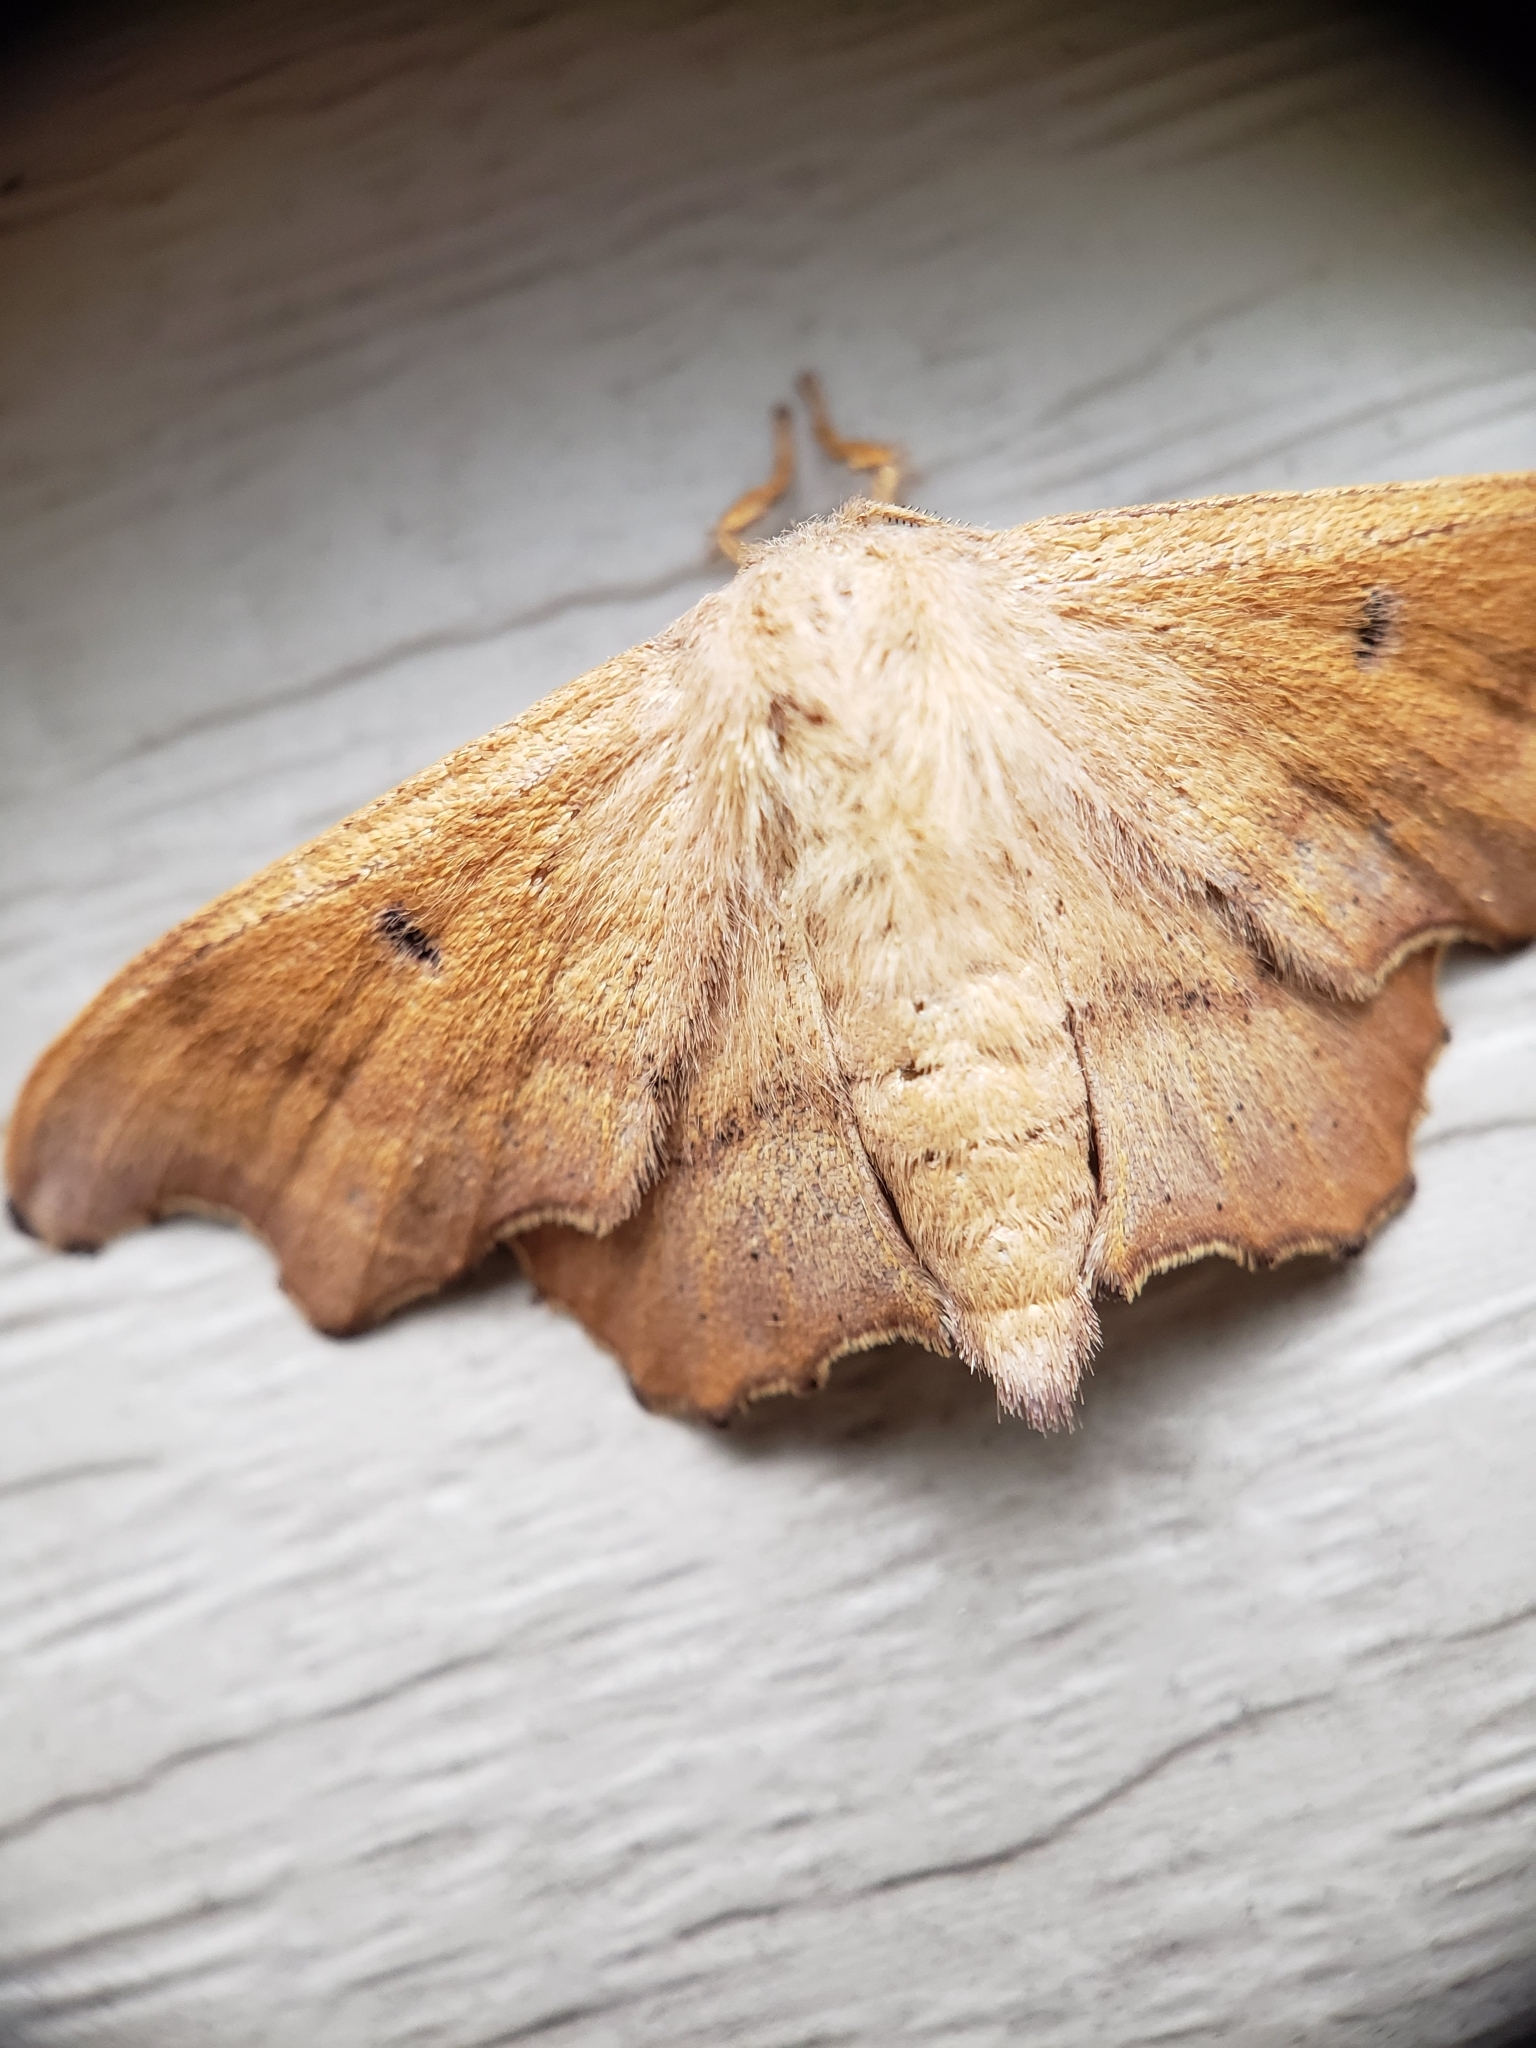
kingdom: Animalia
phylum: Arthropoda
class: Insecta
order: Lepidoptera
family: Mimallonidae
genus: Lacosoma
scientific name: Lacosoma chiridota
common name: Scalloped sack-bearer moth
